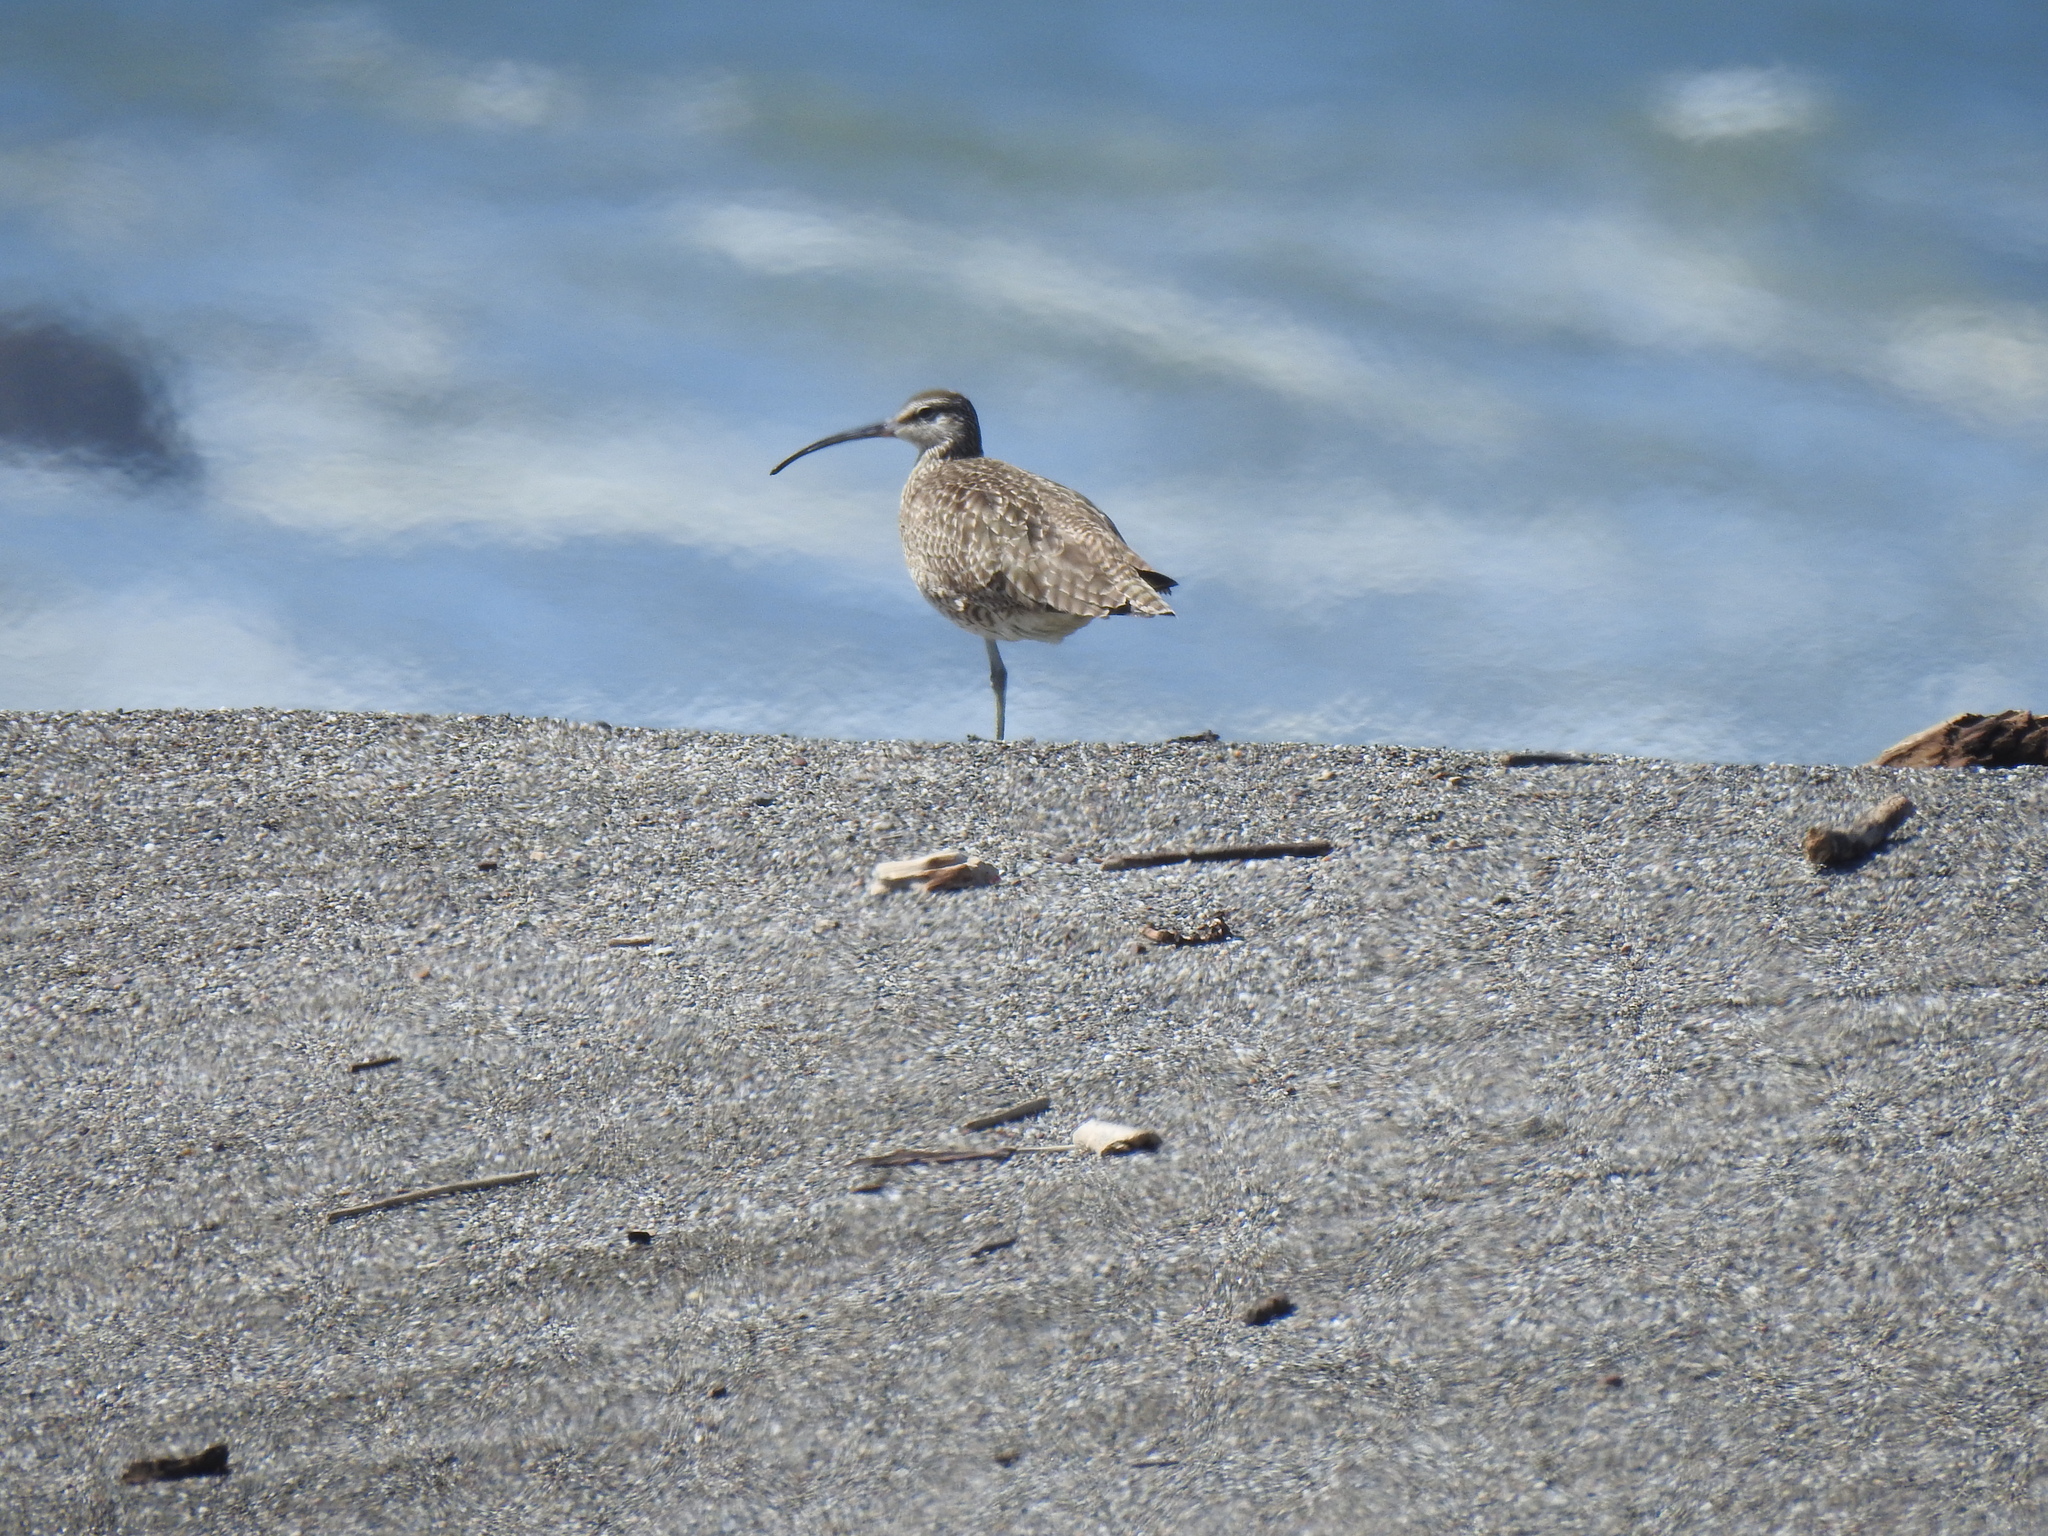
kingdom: Animalia
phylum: Chordata
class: Aves
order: Charadriiformes
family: Scolopacidae
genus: Numenius
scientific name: Numenius phaeopus
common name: Whimbrel
